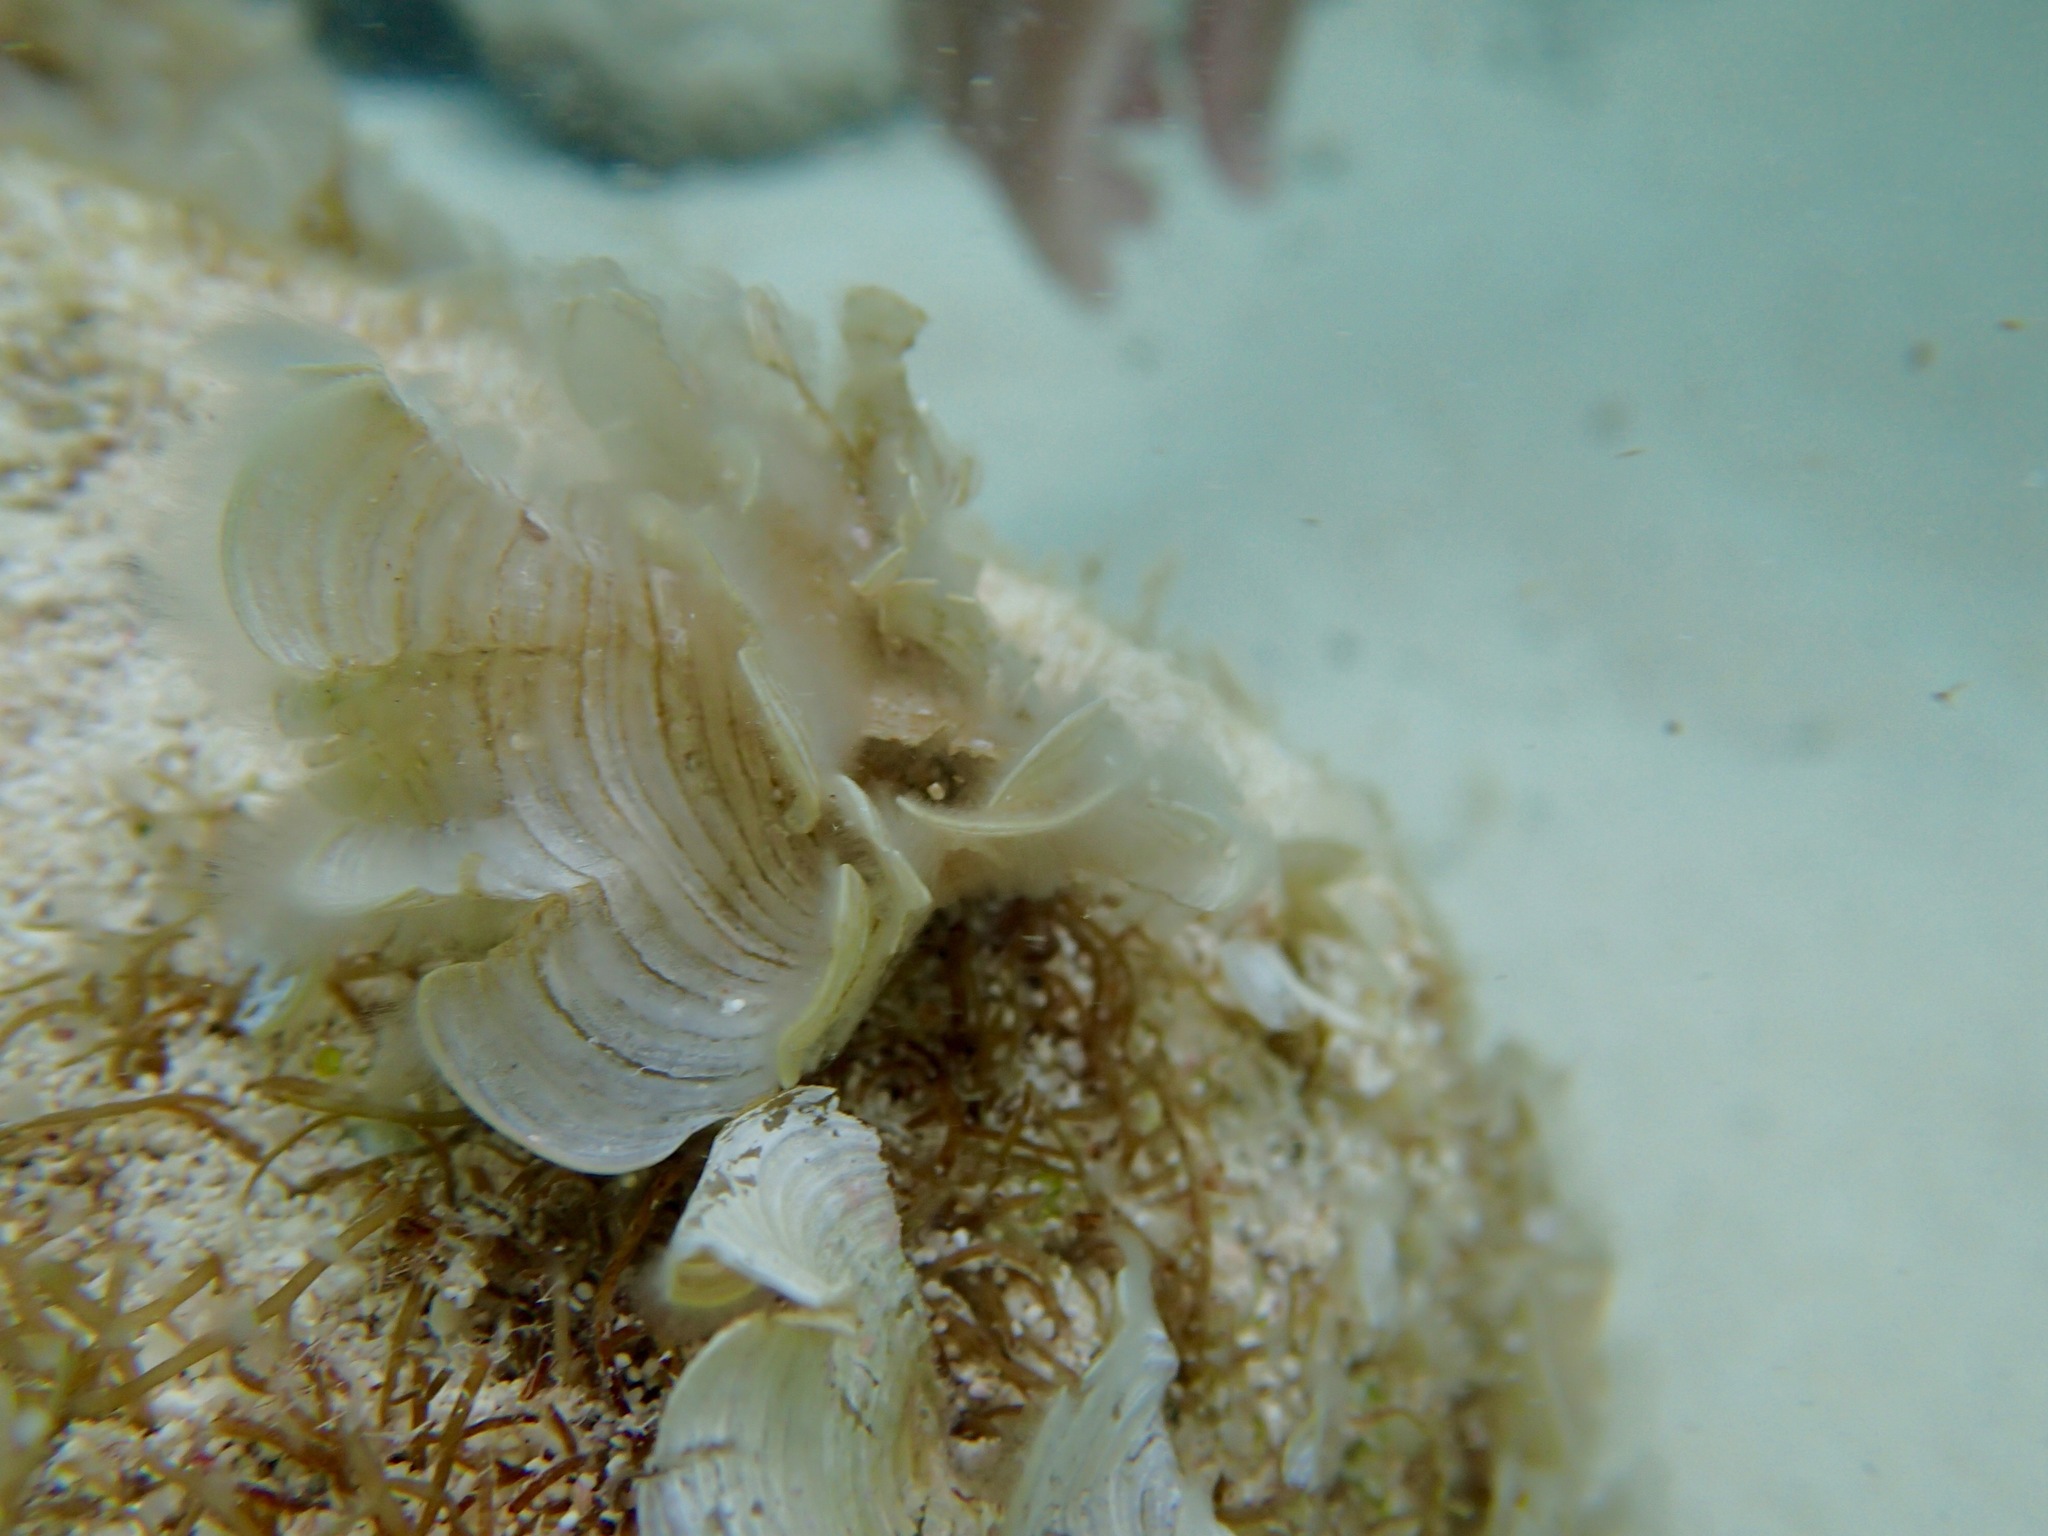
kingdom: Chromista
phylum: Ochrophyta
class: Phaeophyceae
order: Dictyotales
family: Dictyotaceae
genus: Padina
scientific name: Padina sanctae-crucis
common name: White scroll algae
